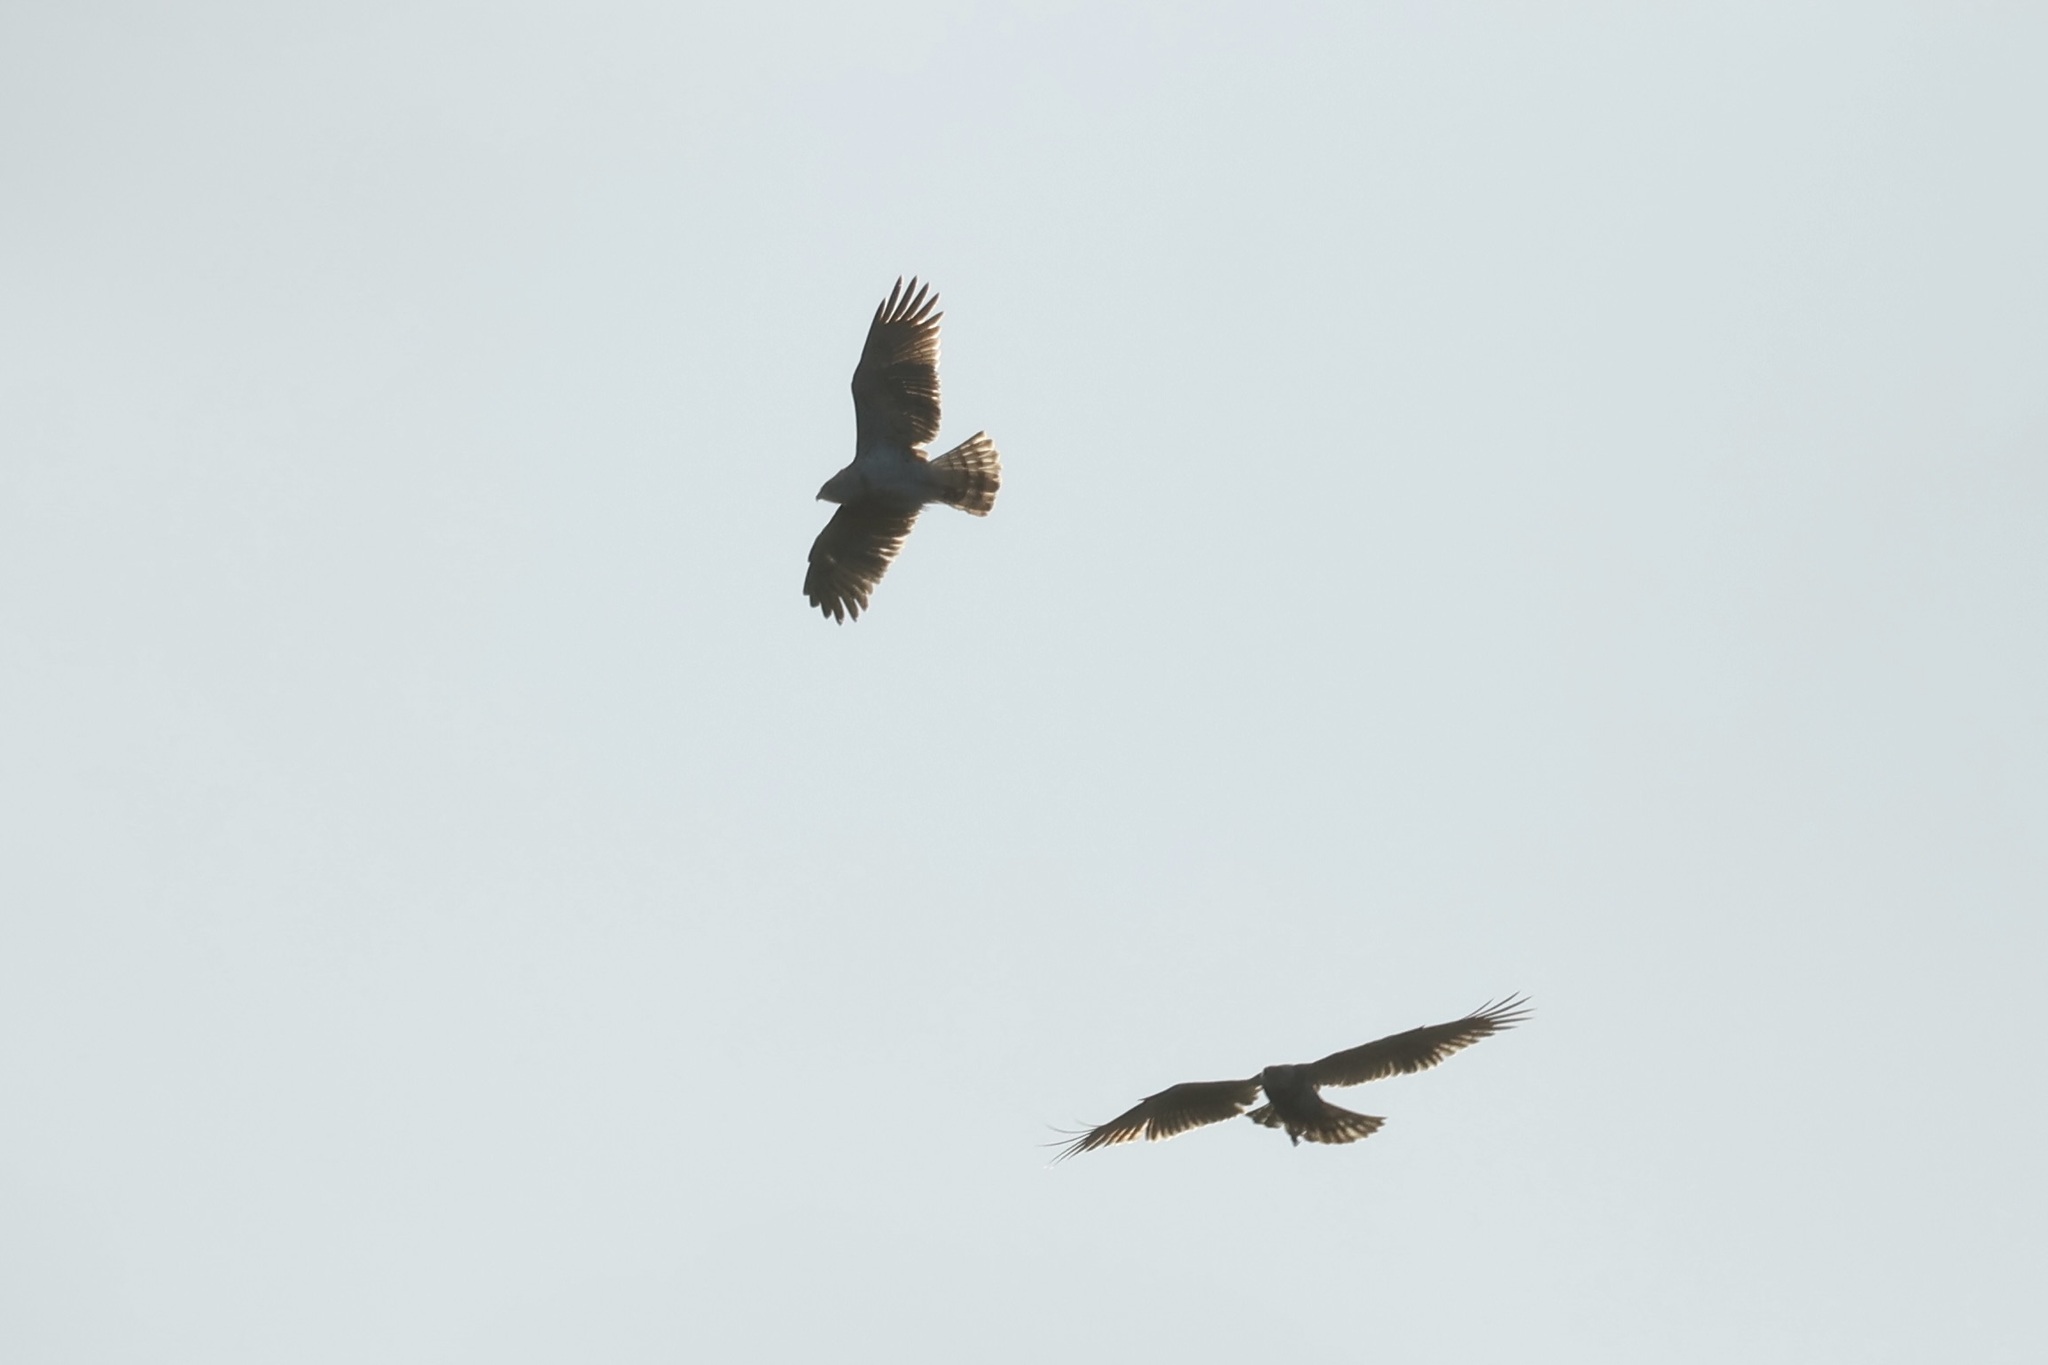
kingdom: Animalia
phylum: Chordata
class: Aves
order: Accipitriformes
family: Accipitridae
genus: Circaetus
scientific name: Circaetus gallicus
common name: Short-toed snake eagle
